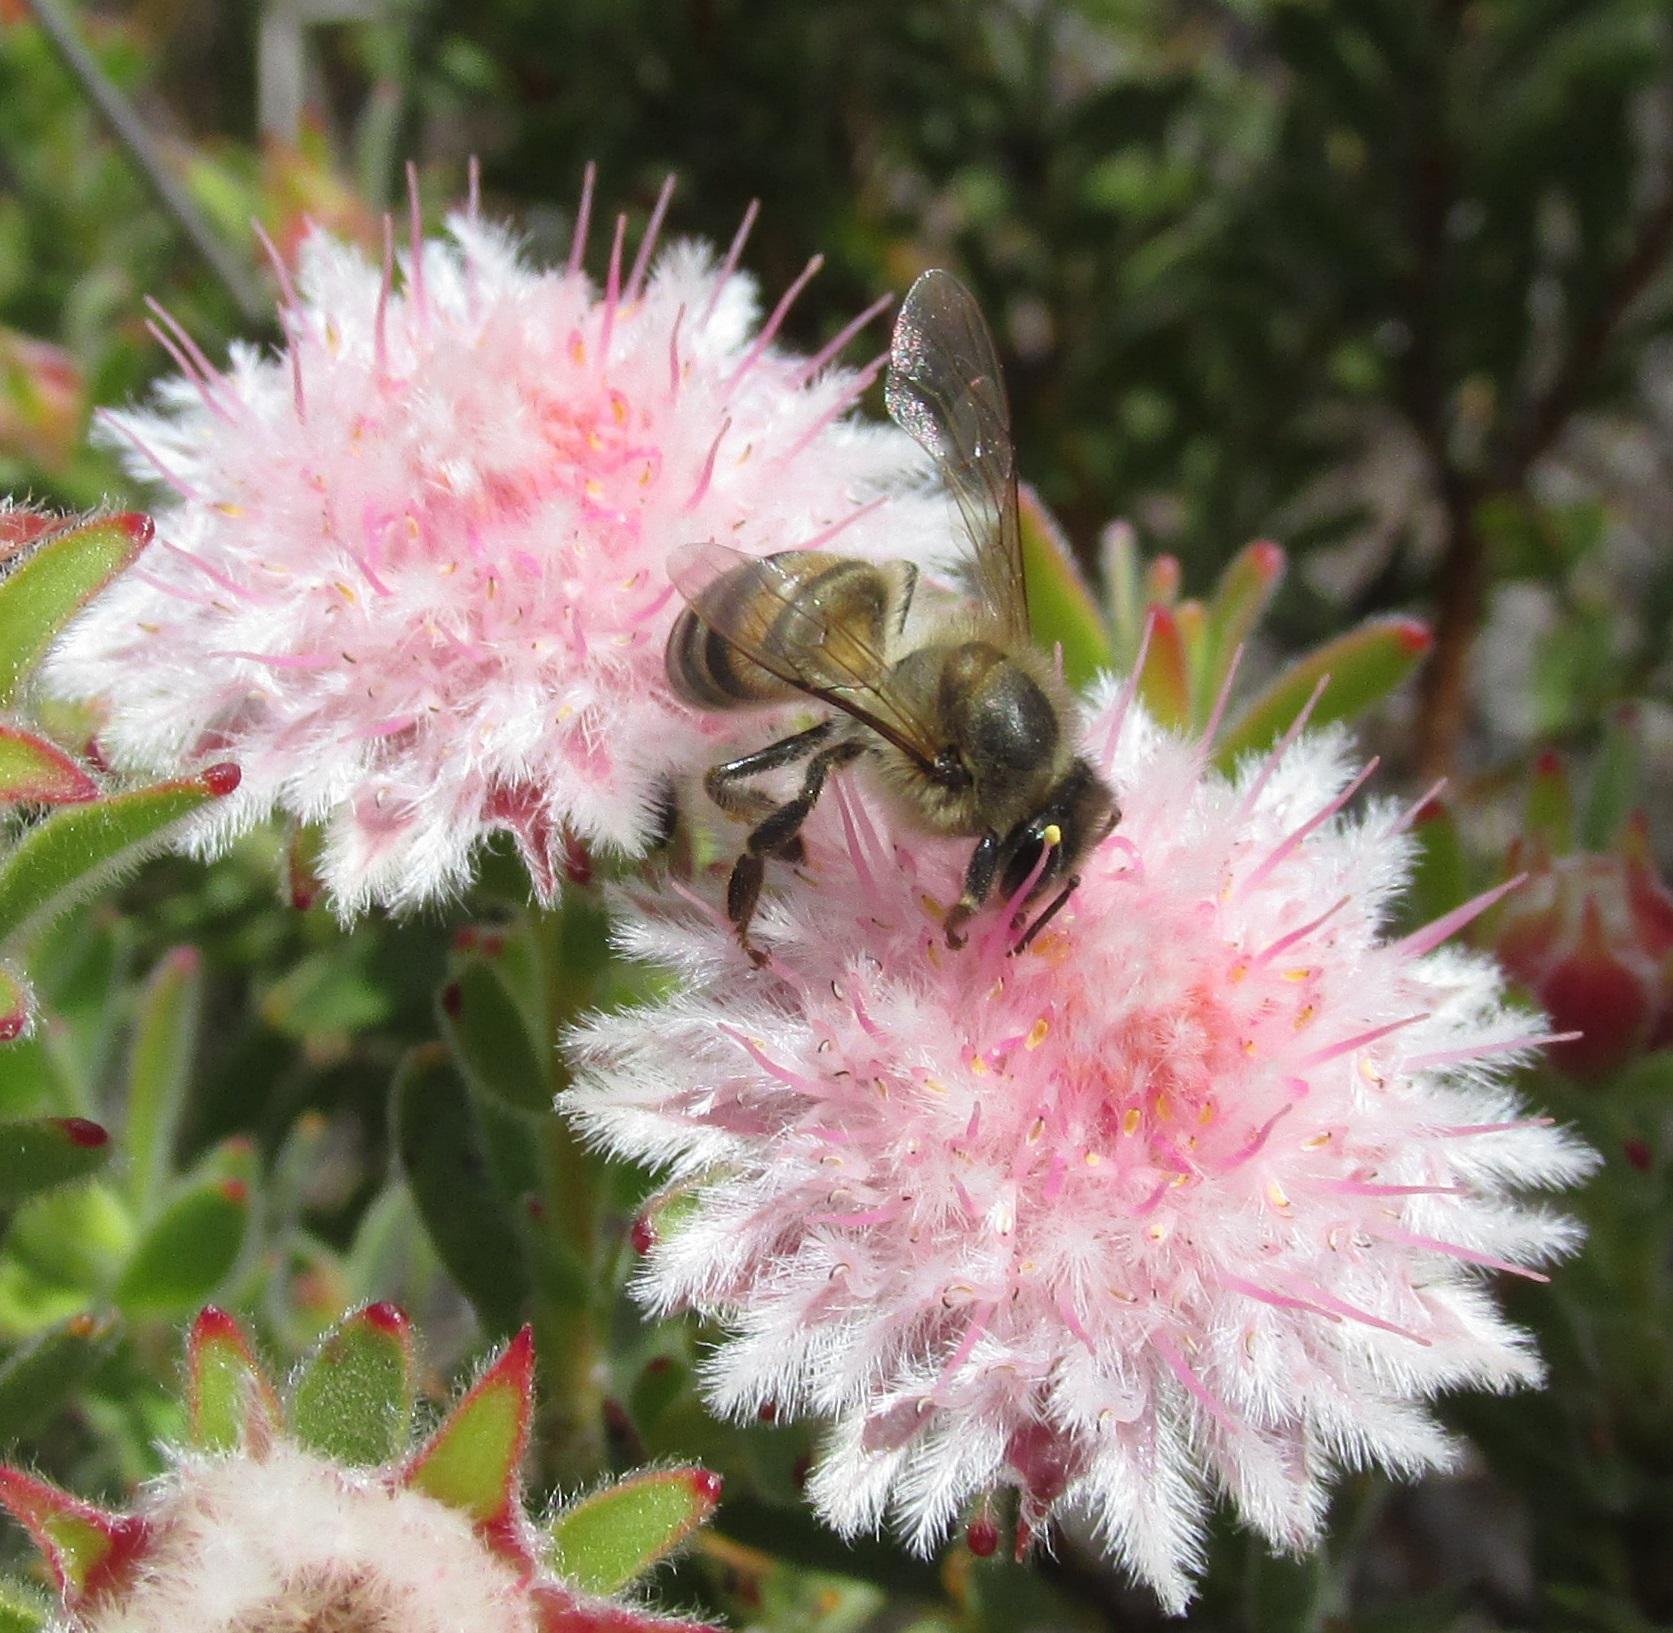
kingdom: Animalia
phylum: Arthropoda
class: Insecta
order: Hymenoptera
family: Apidae
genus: Apis
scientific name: Apis mellifera
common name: Honey bee
